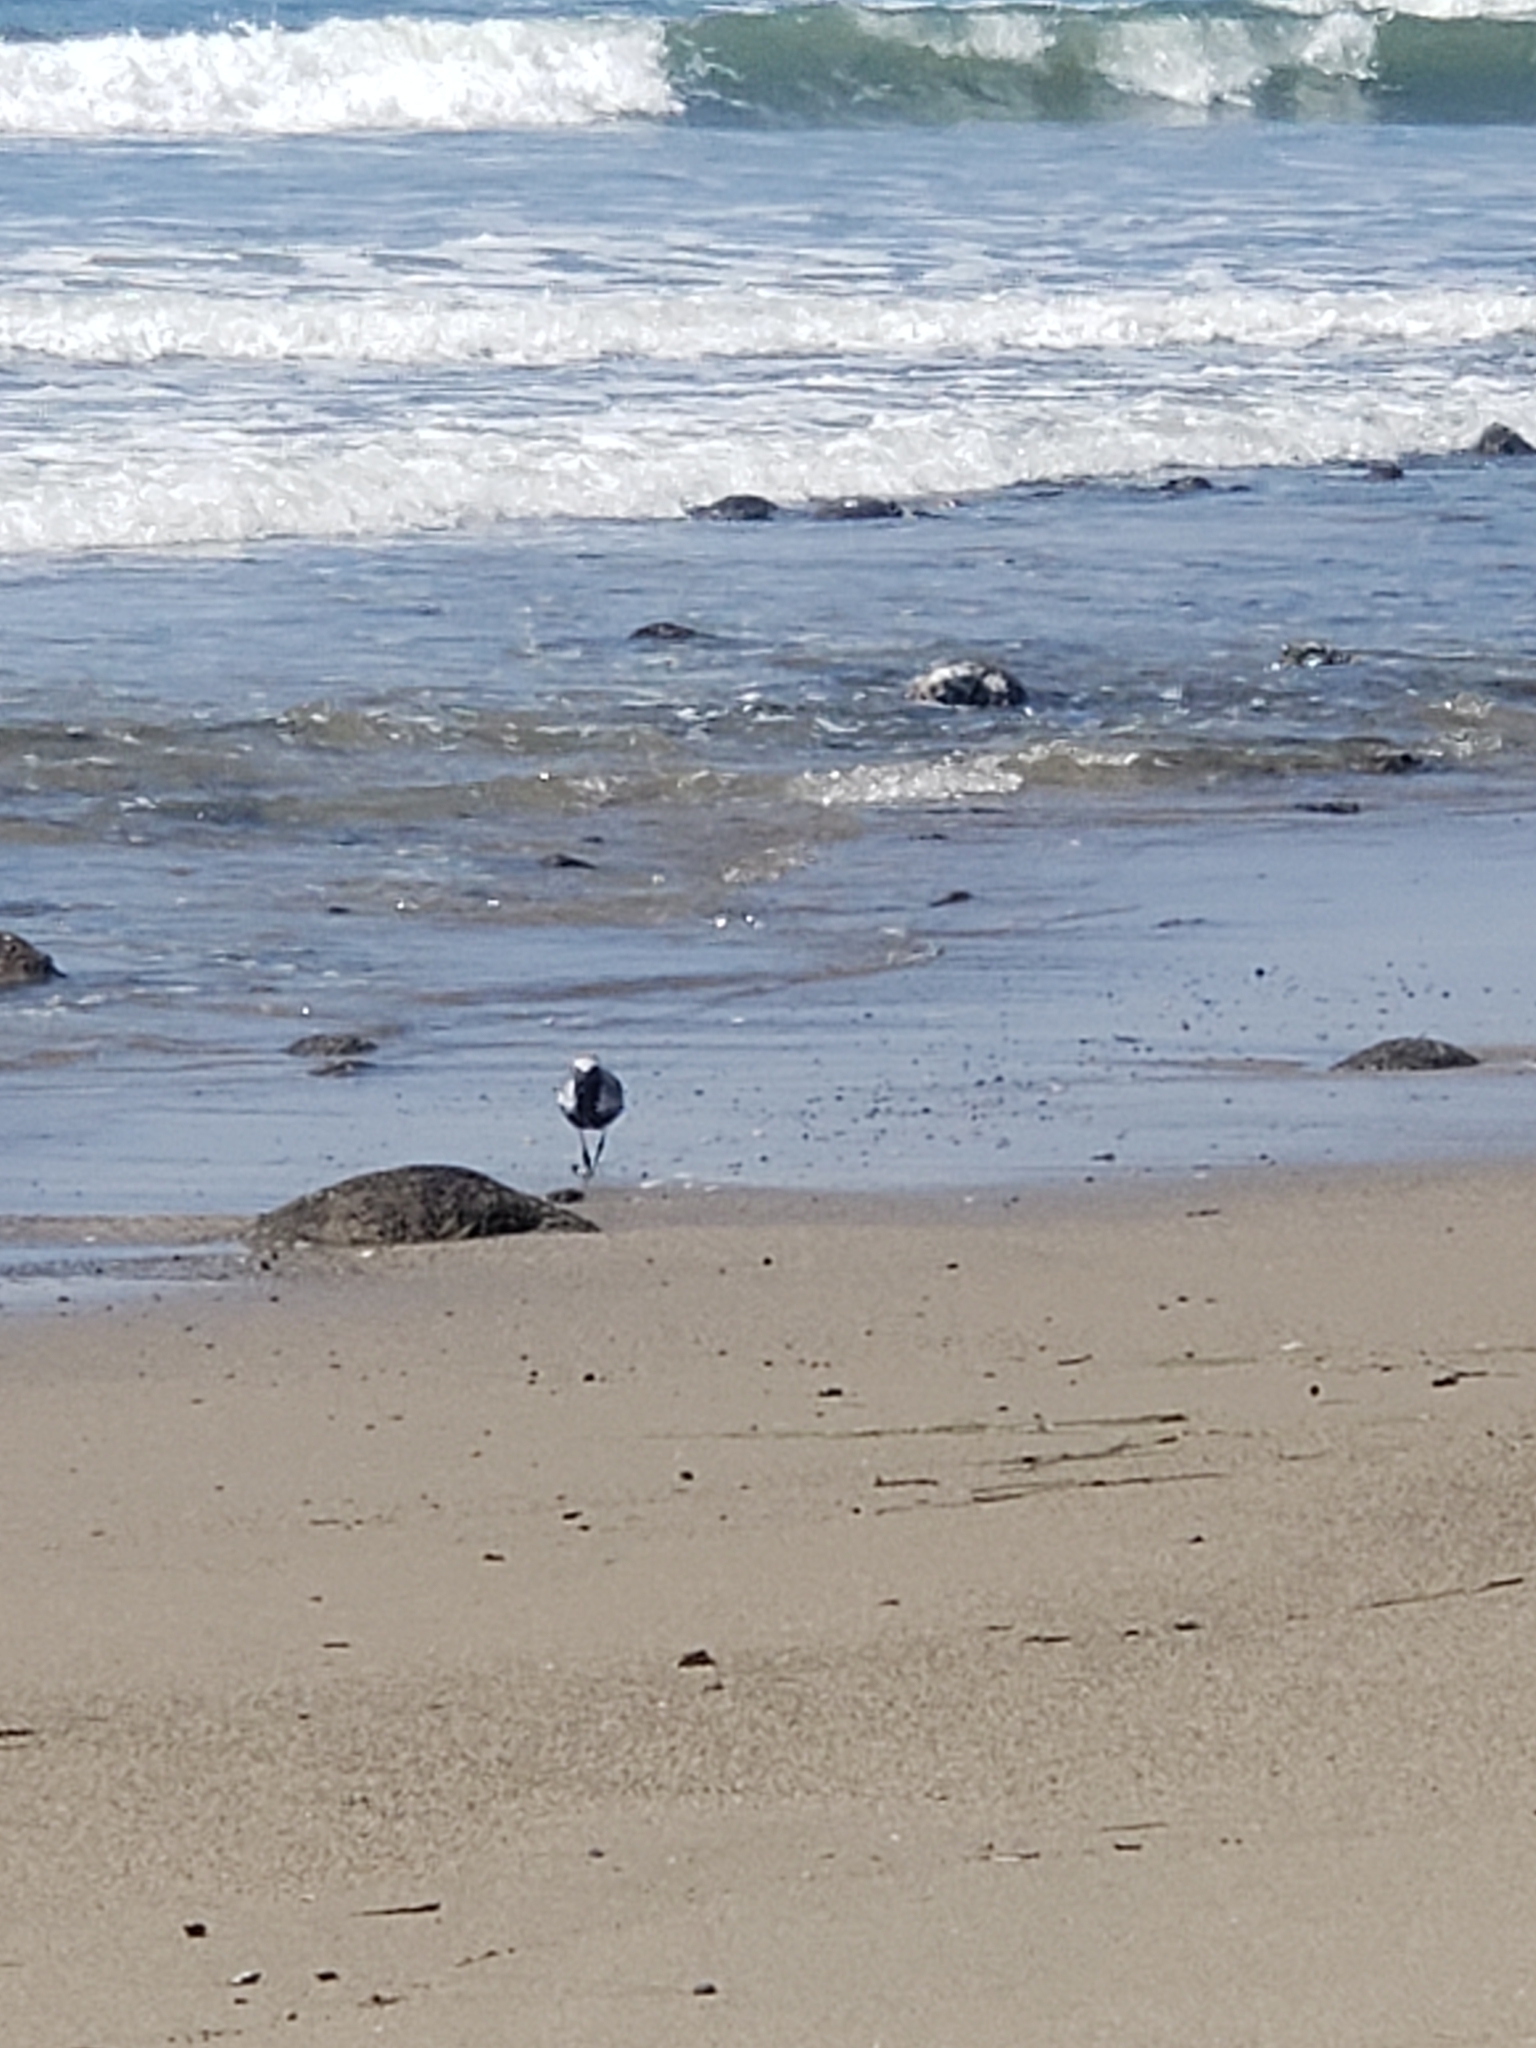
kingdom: Animalia
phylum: Chordata
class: Aves
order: Charadriiformes
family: Charadriidae
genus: Pluvialis
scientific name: Pluvialis squatarola
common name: Grey plover
